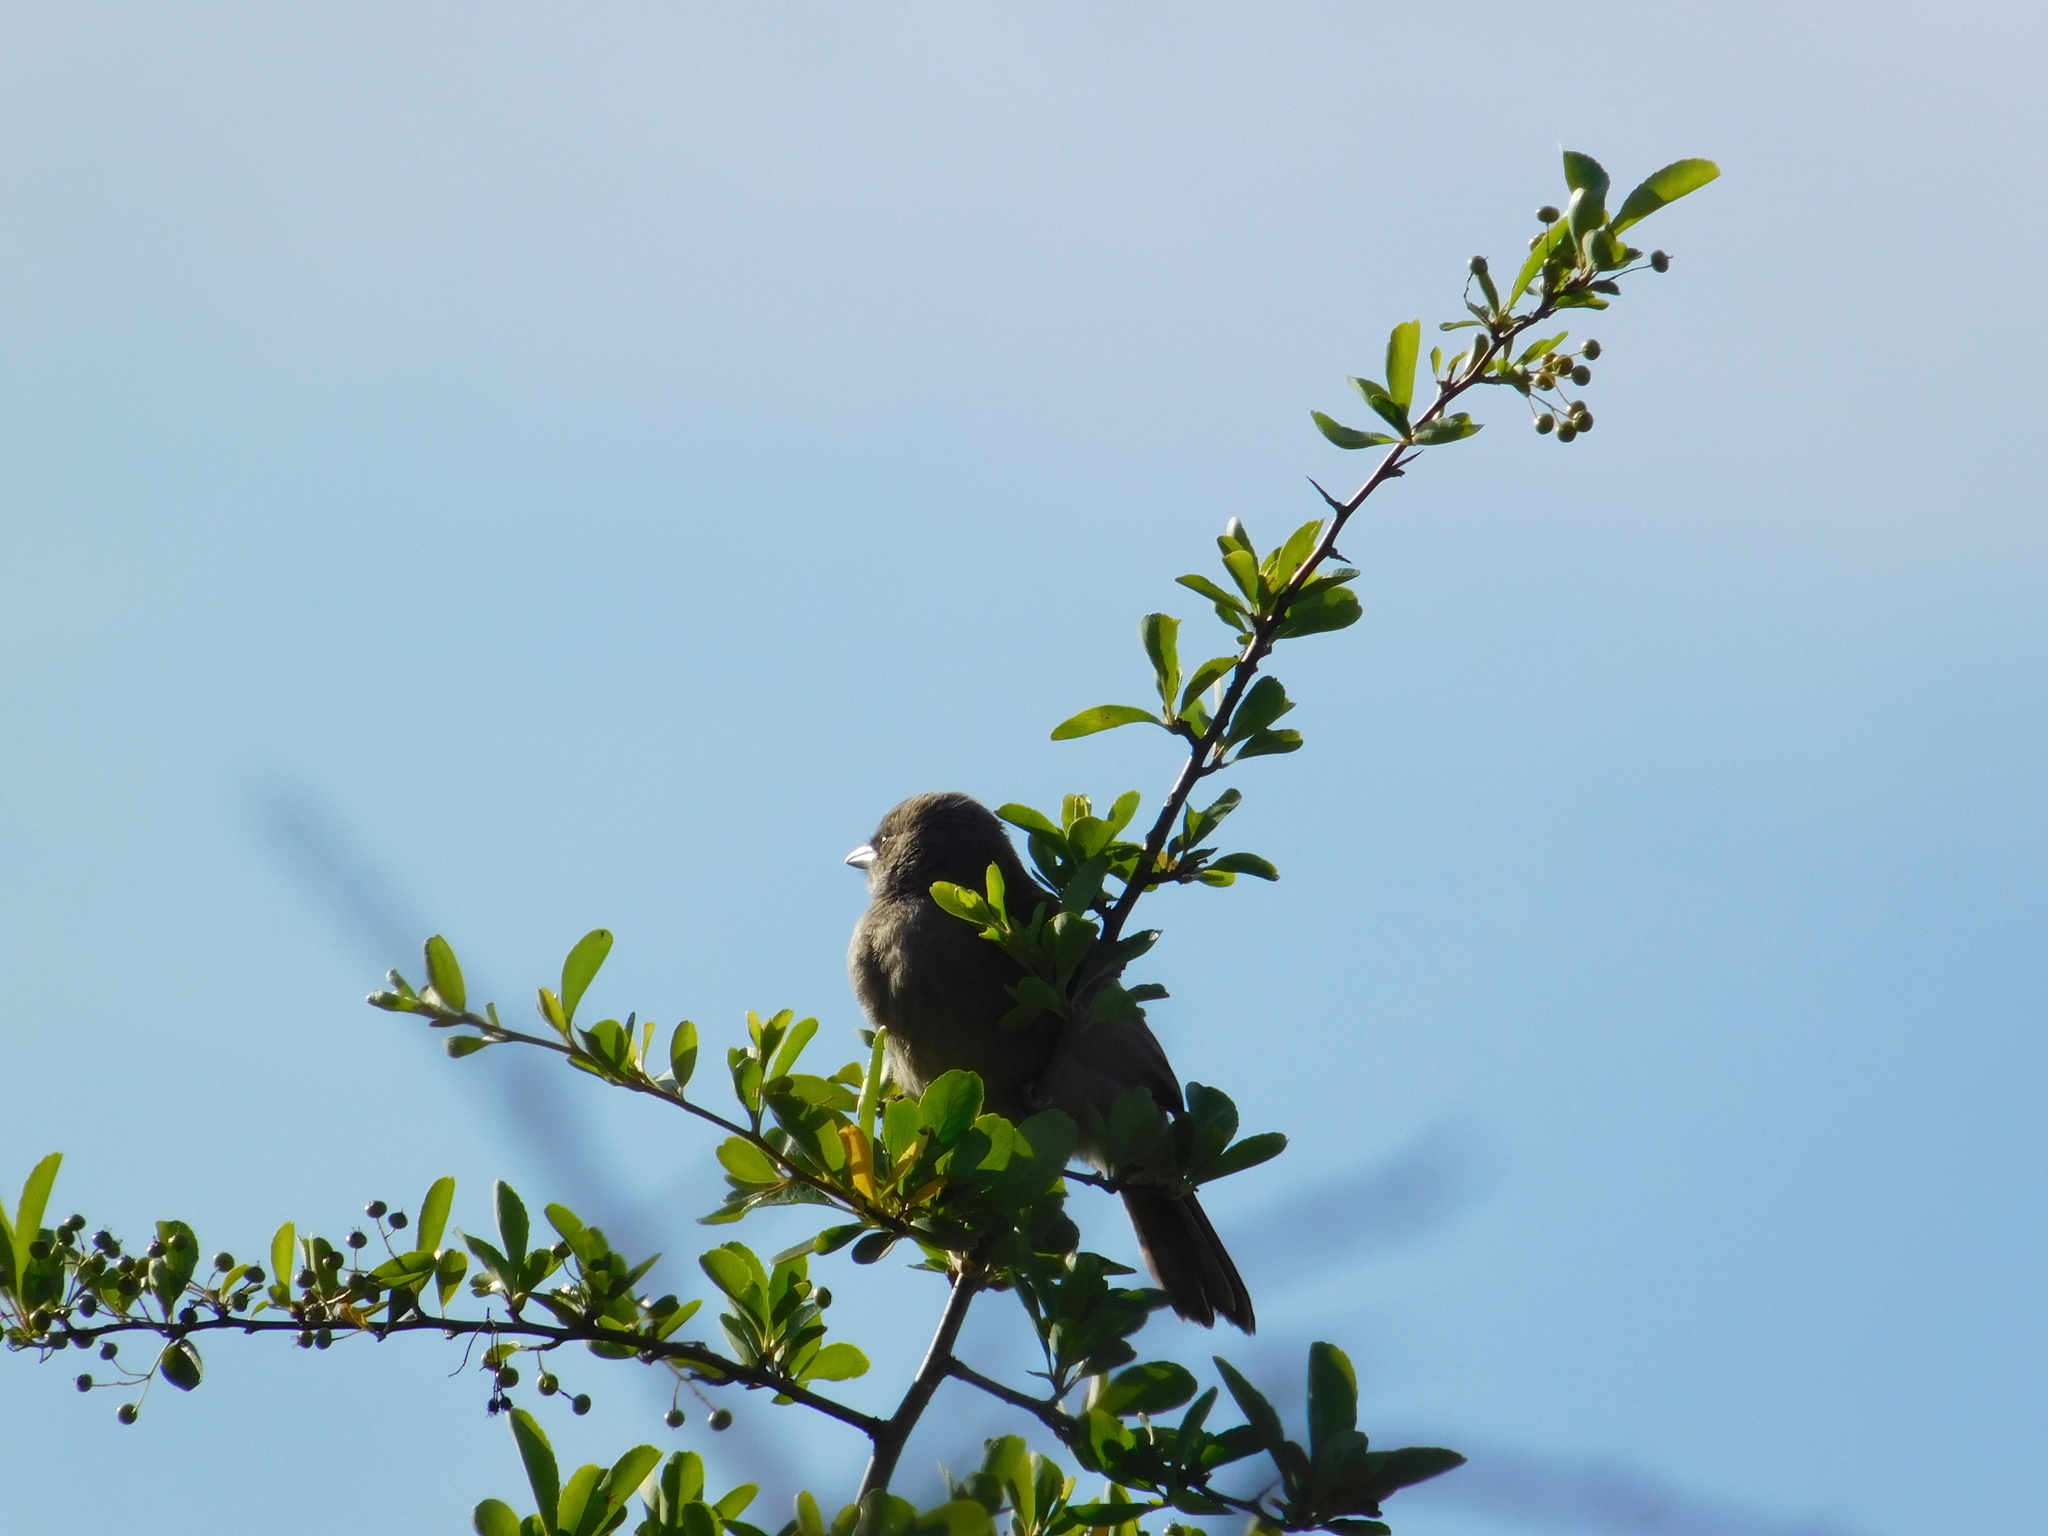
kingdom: Animalia
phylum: Chordata
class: Aves
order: Passeriformes
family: Icteridae
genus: Agelaioides
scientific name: Agelaioides badius
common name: Baywing
